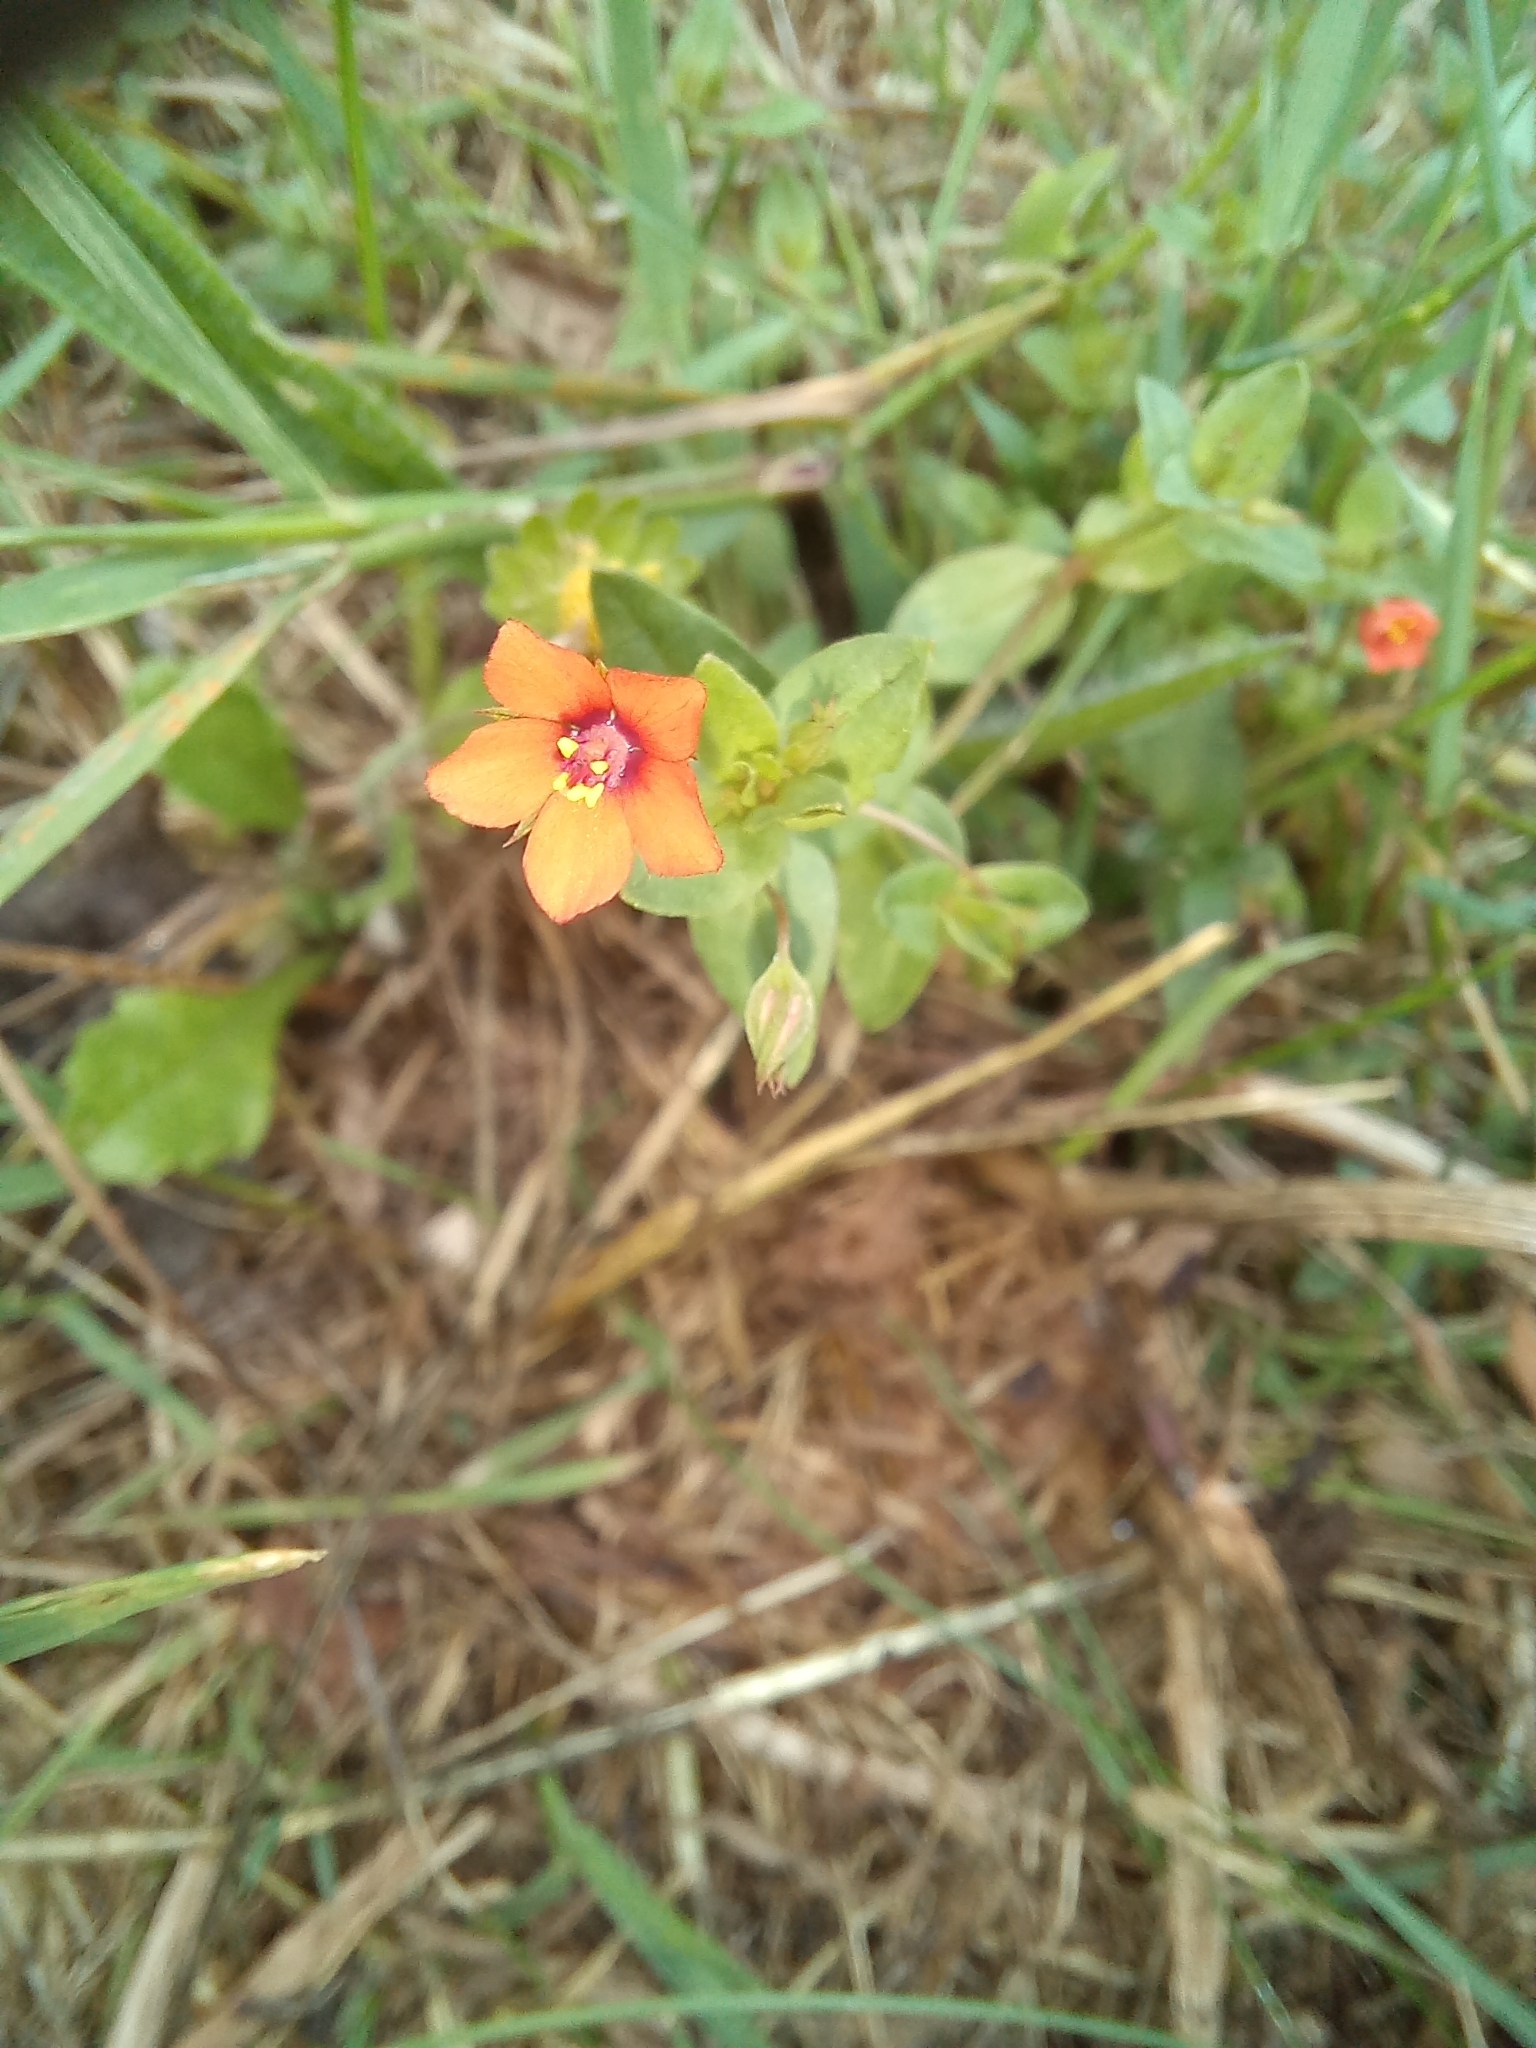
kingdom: Plantae
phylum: Tracheophyta
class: Magnoliopsida
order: Ericales
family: Primulaceae
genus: Lysimachia
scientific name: Lysimachia arvensis
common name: Scarlet pimpernel
